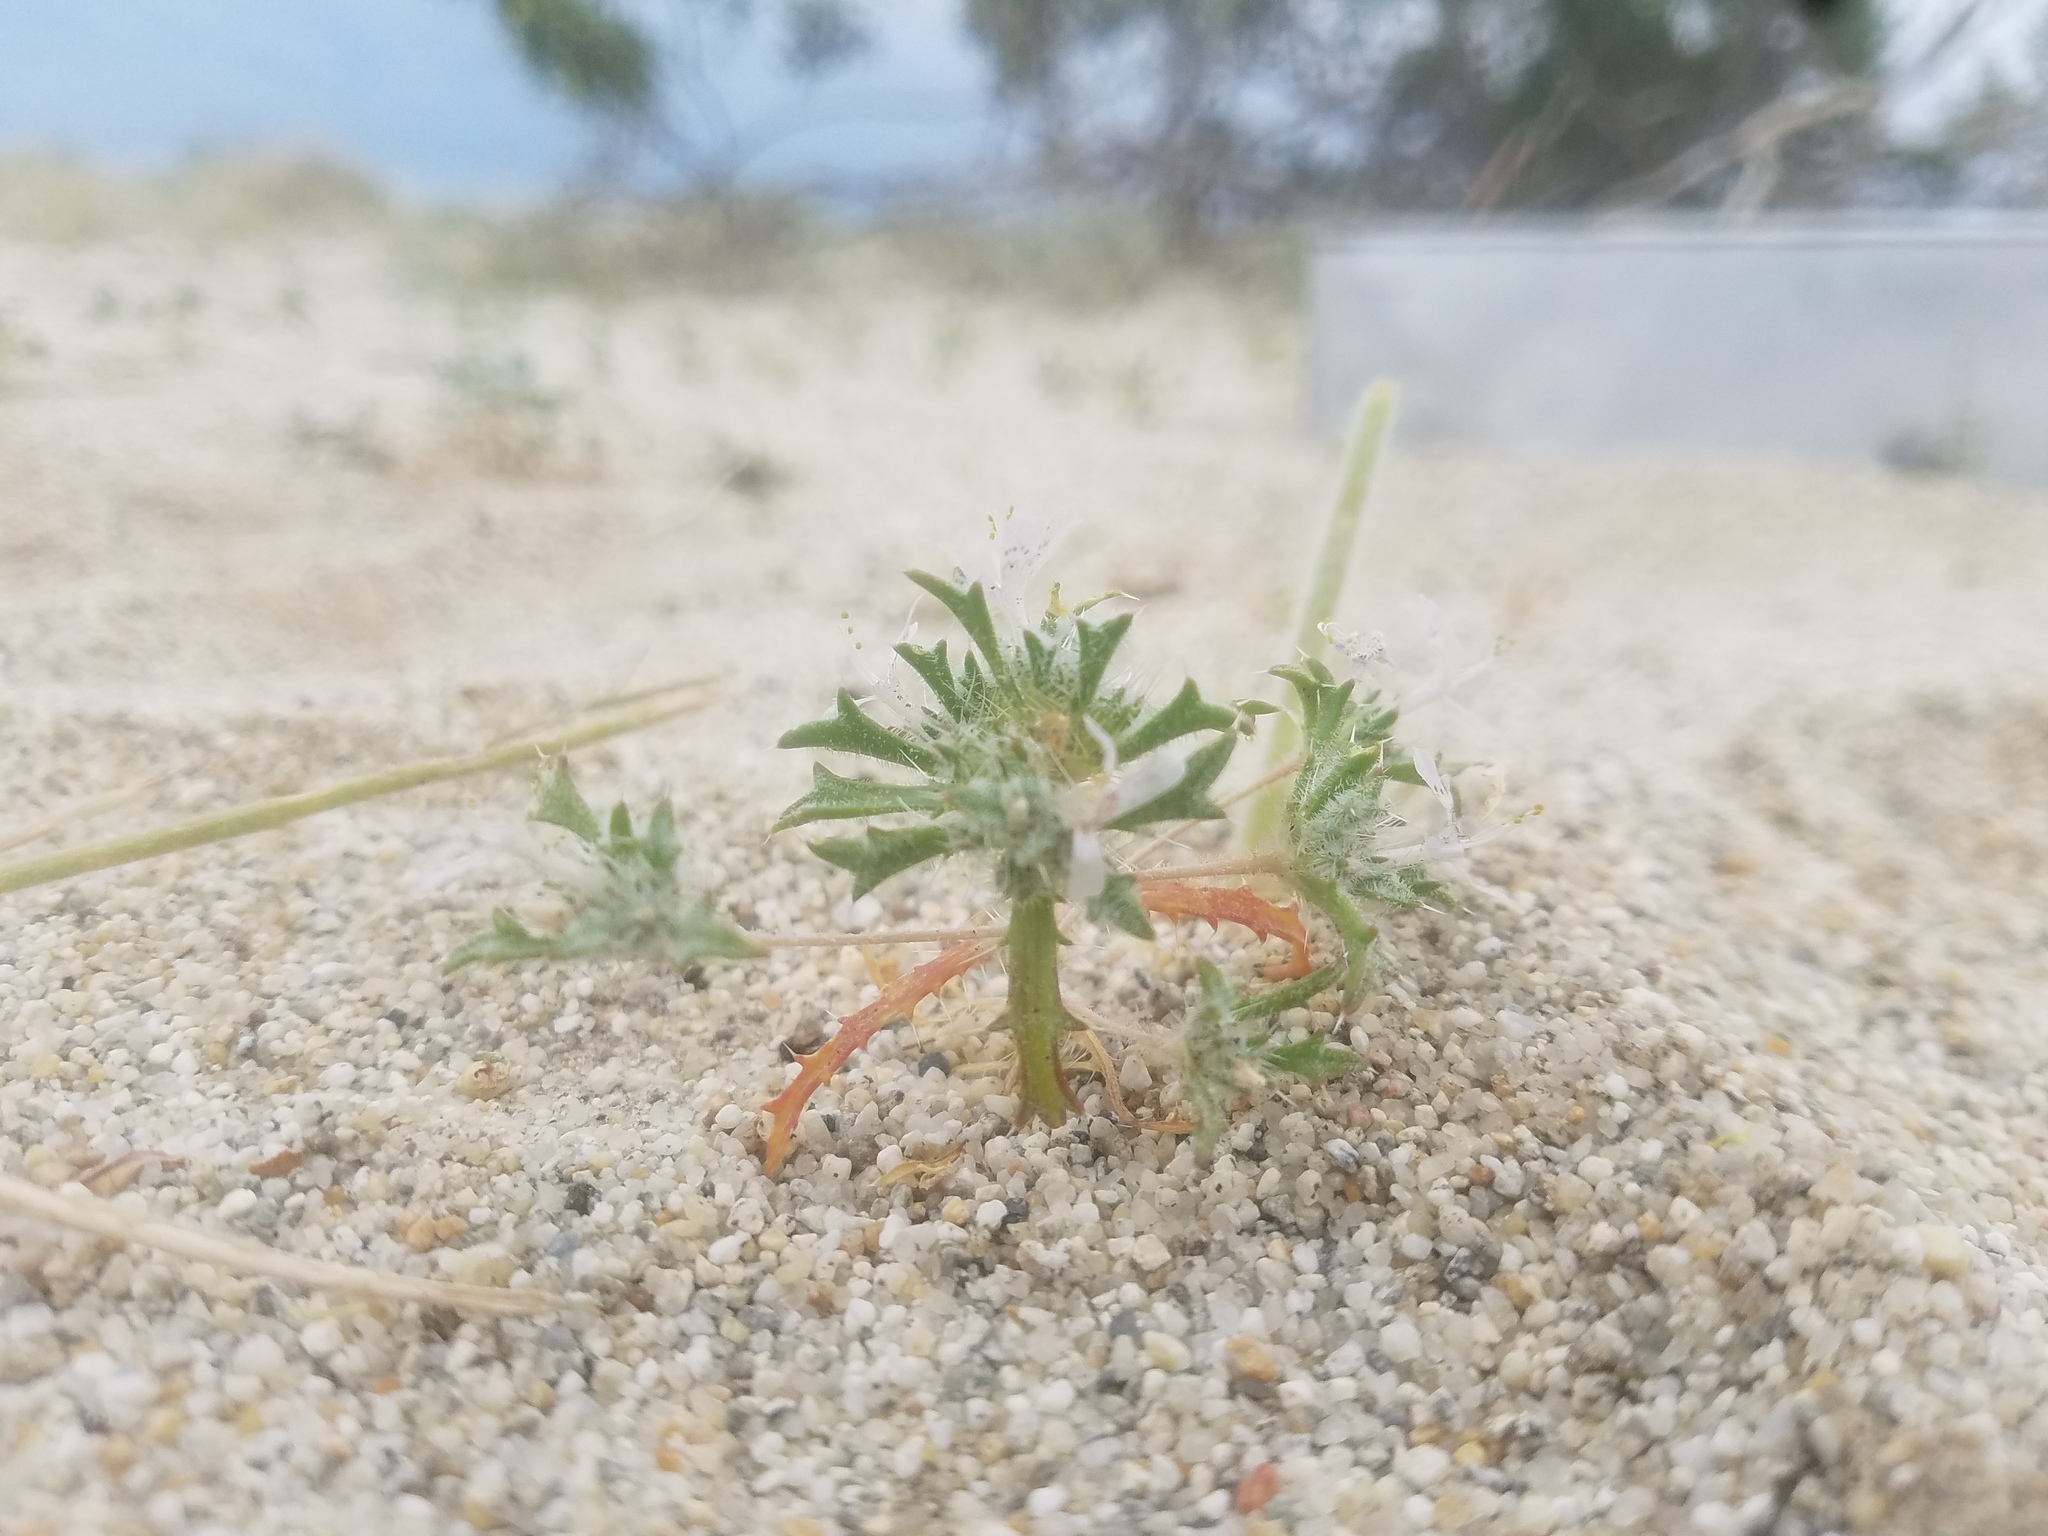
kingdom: Plantae
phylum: Tracheophyta
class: Magnoliopsida
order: Ericales
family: Polemoniaceae
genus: Loeseliastrum
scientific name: Loeseliastrum schottii
